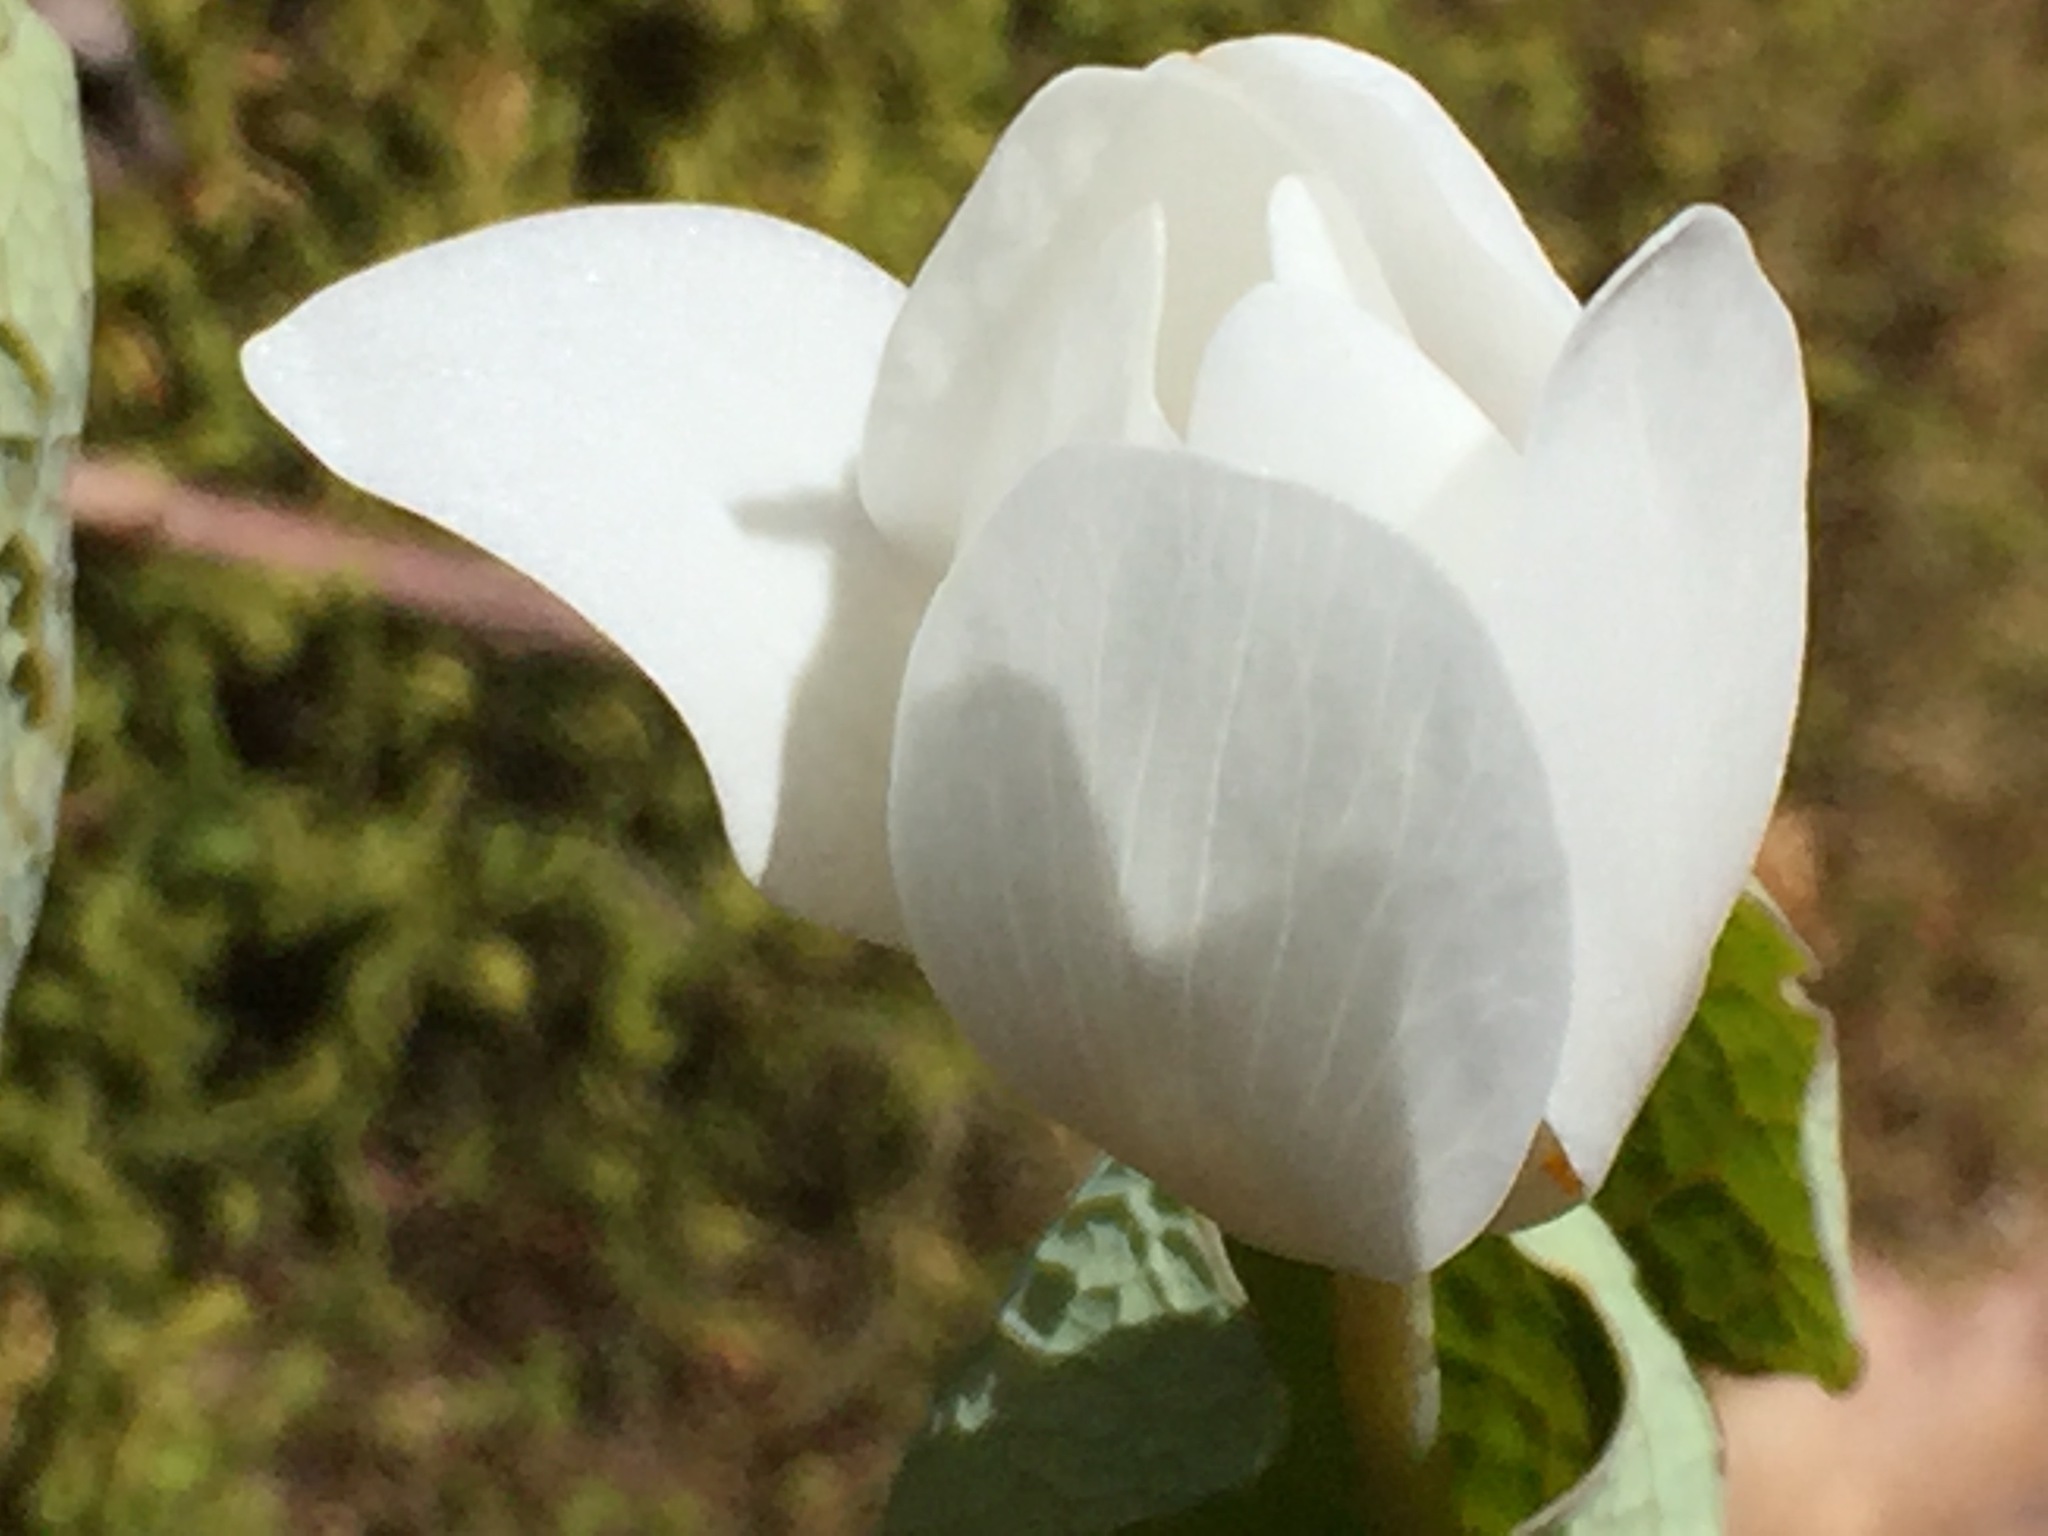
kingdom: Plantae
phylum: Tracheophyta
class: Magnoliopsida
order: Ranunculales
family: Papaveraceae
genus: Sanguinaria
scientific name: Sanguinaria canadensis
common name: Bloodroot
